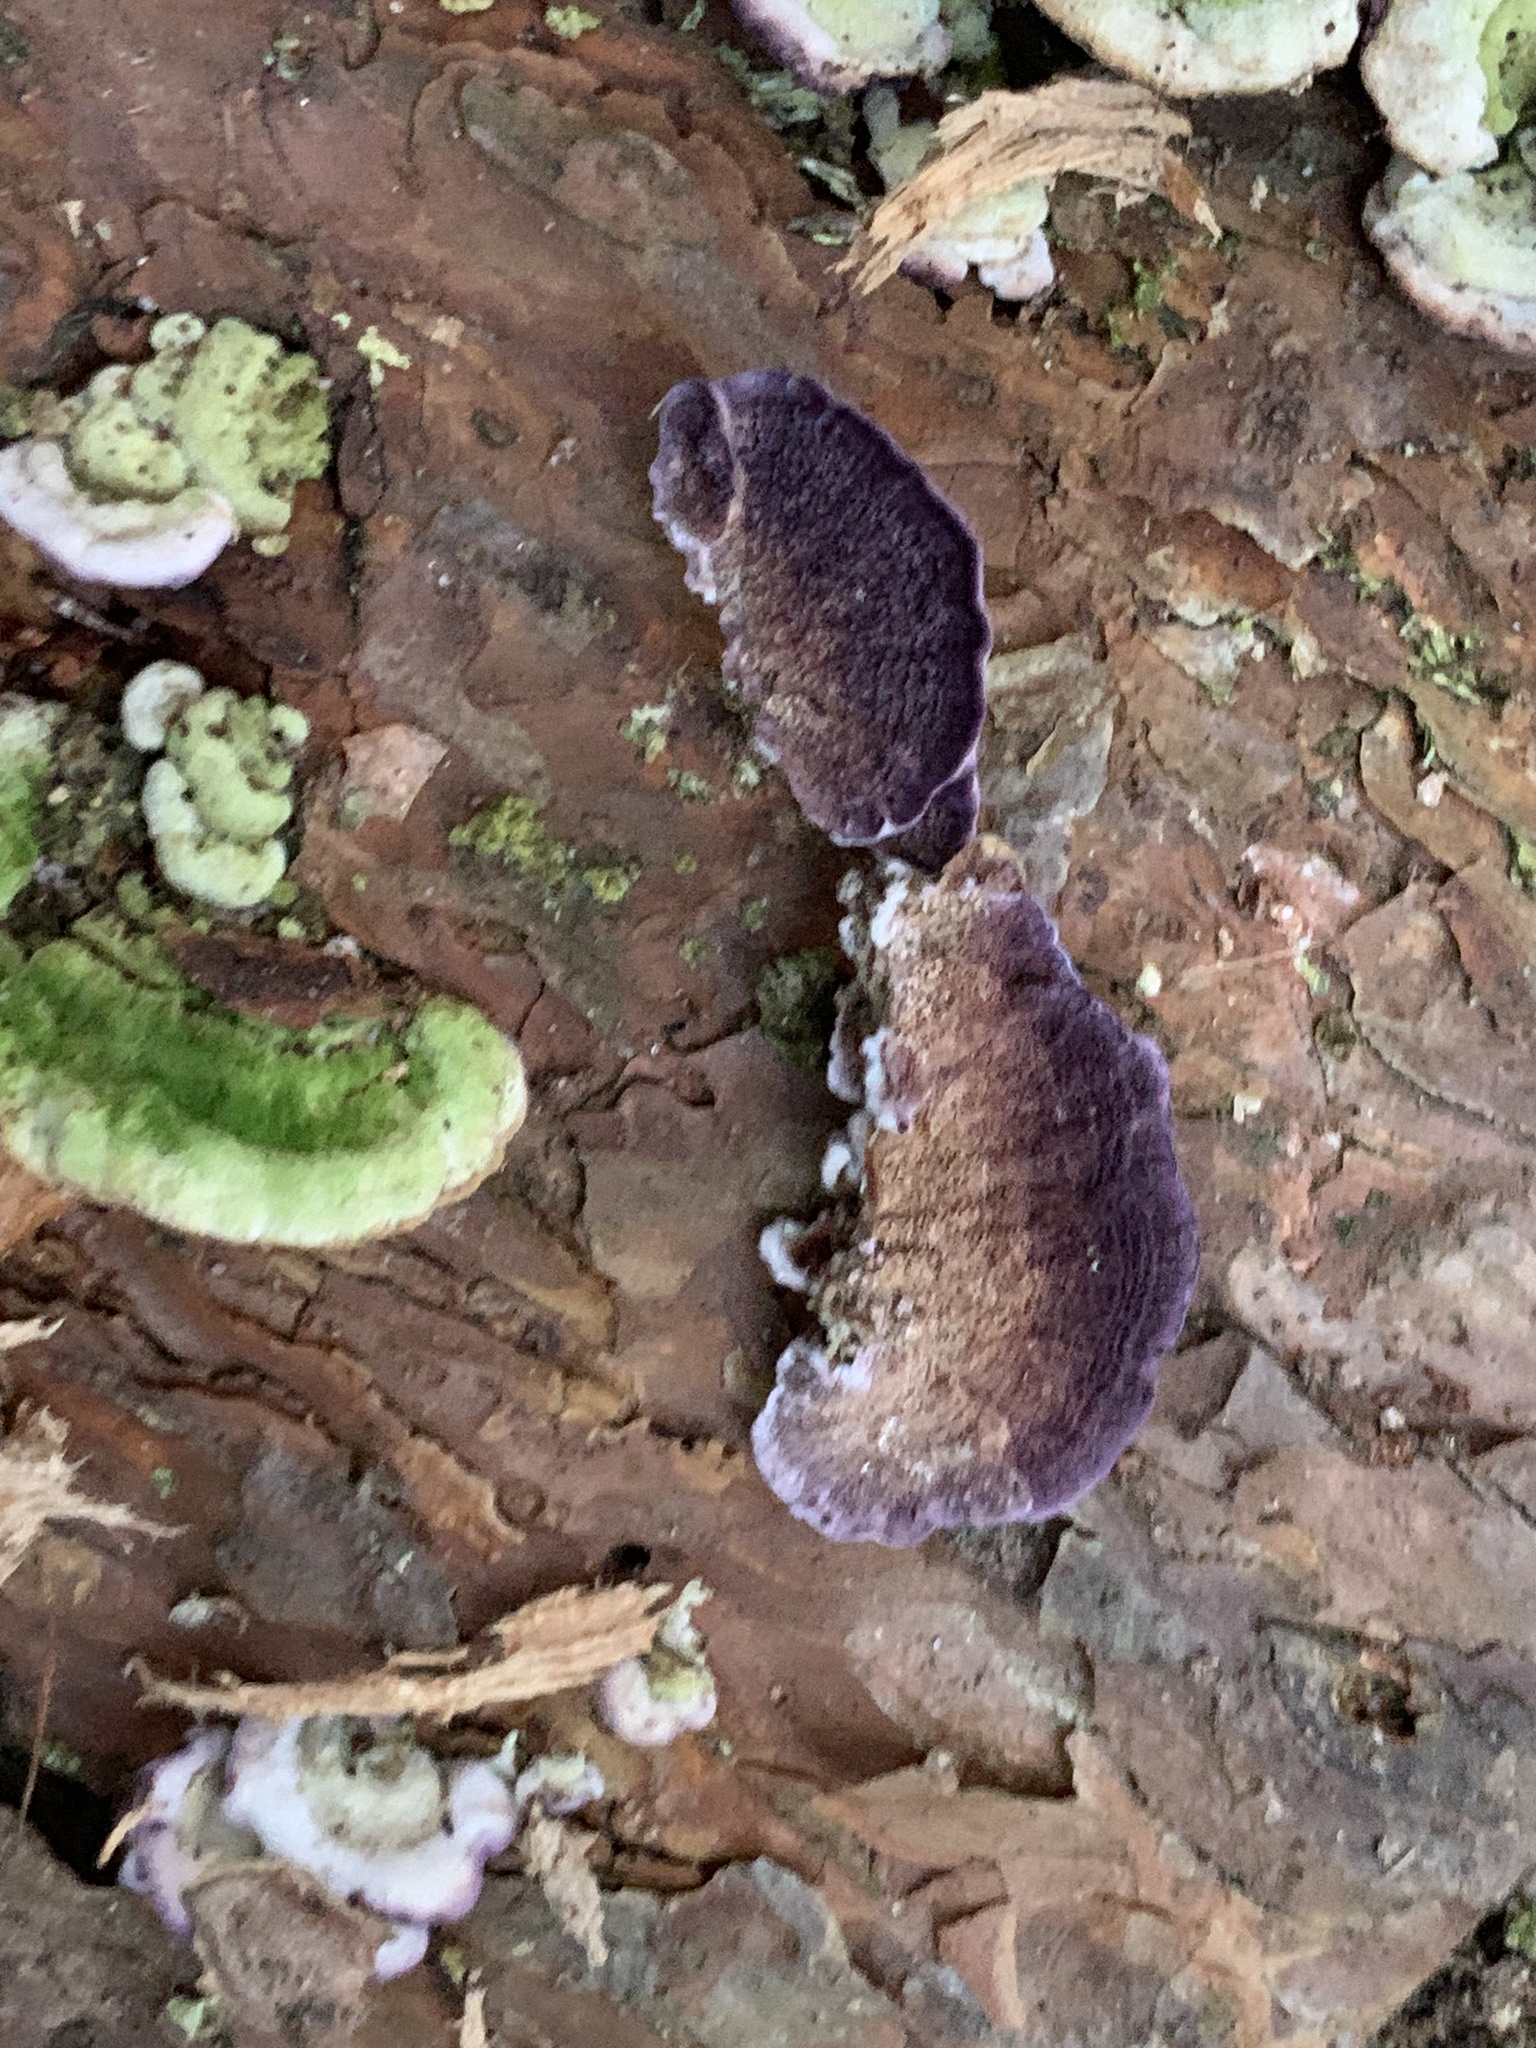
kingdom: Fungi
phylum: Basidiomycota
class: Agaricomycetes
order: Hymenochaetales
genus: Trichaptum
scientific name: Trichaptum abietinum
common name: Purplepore bracket
